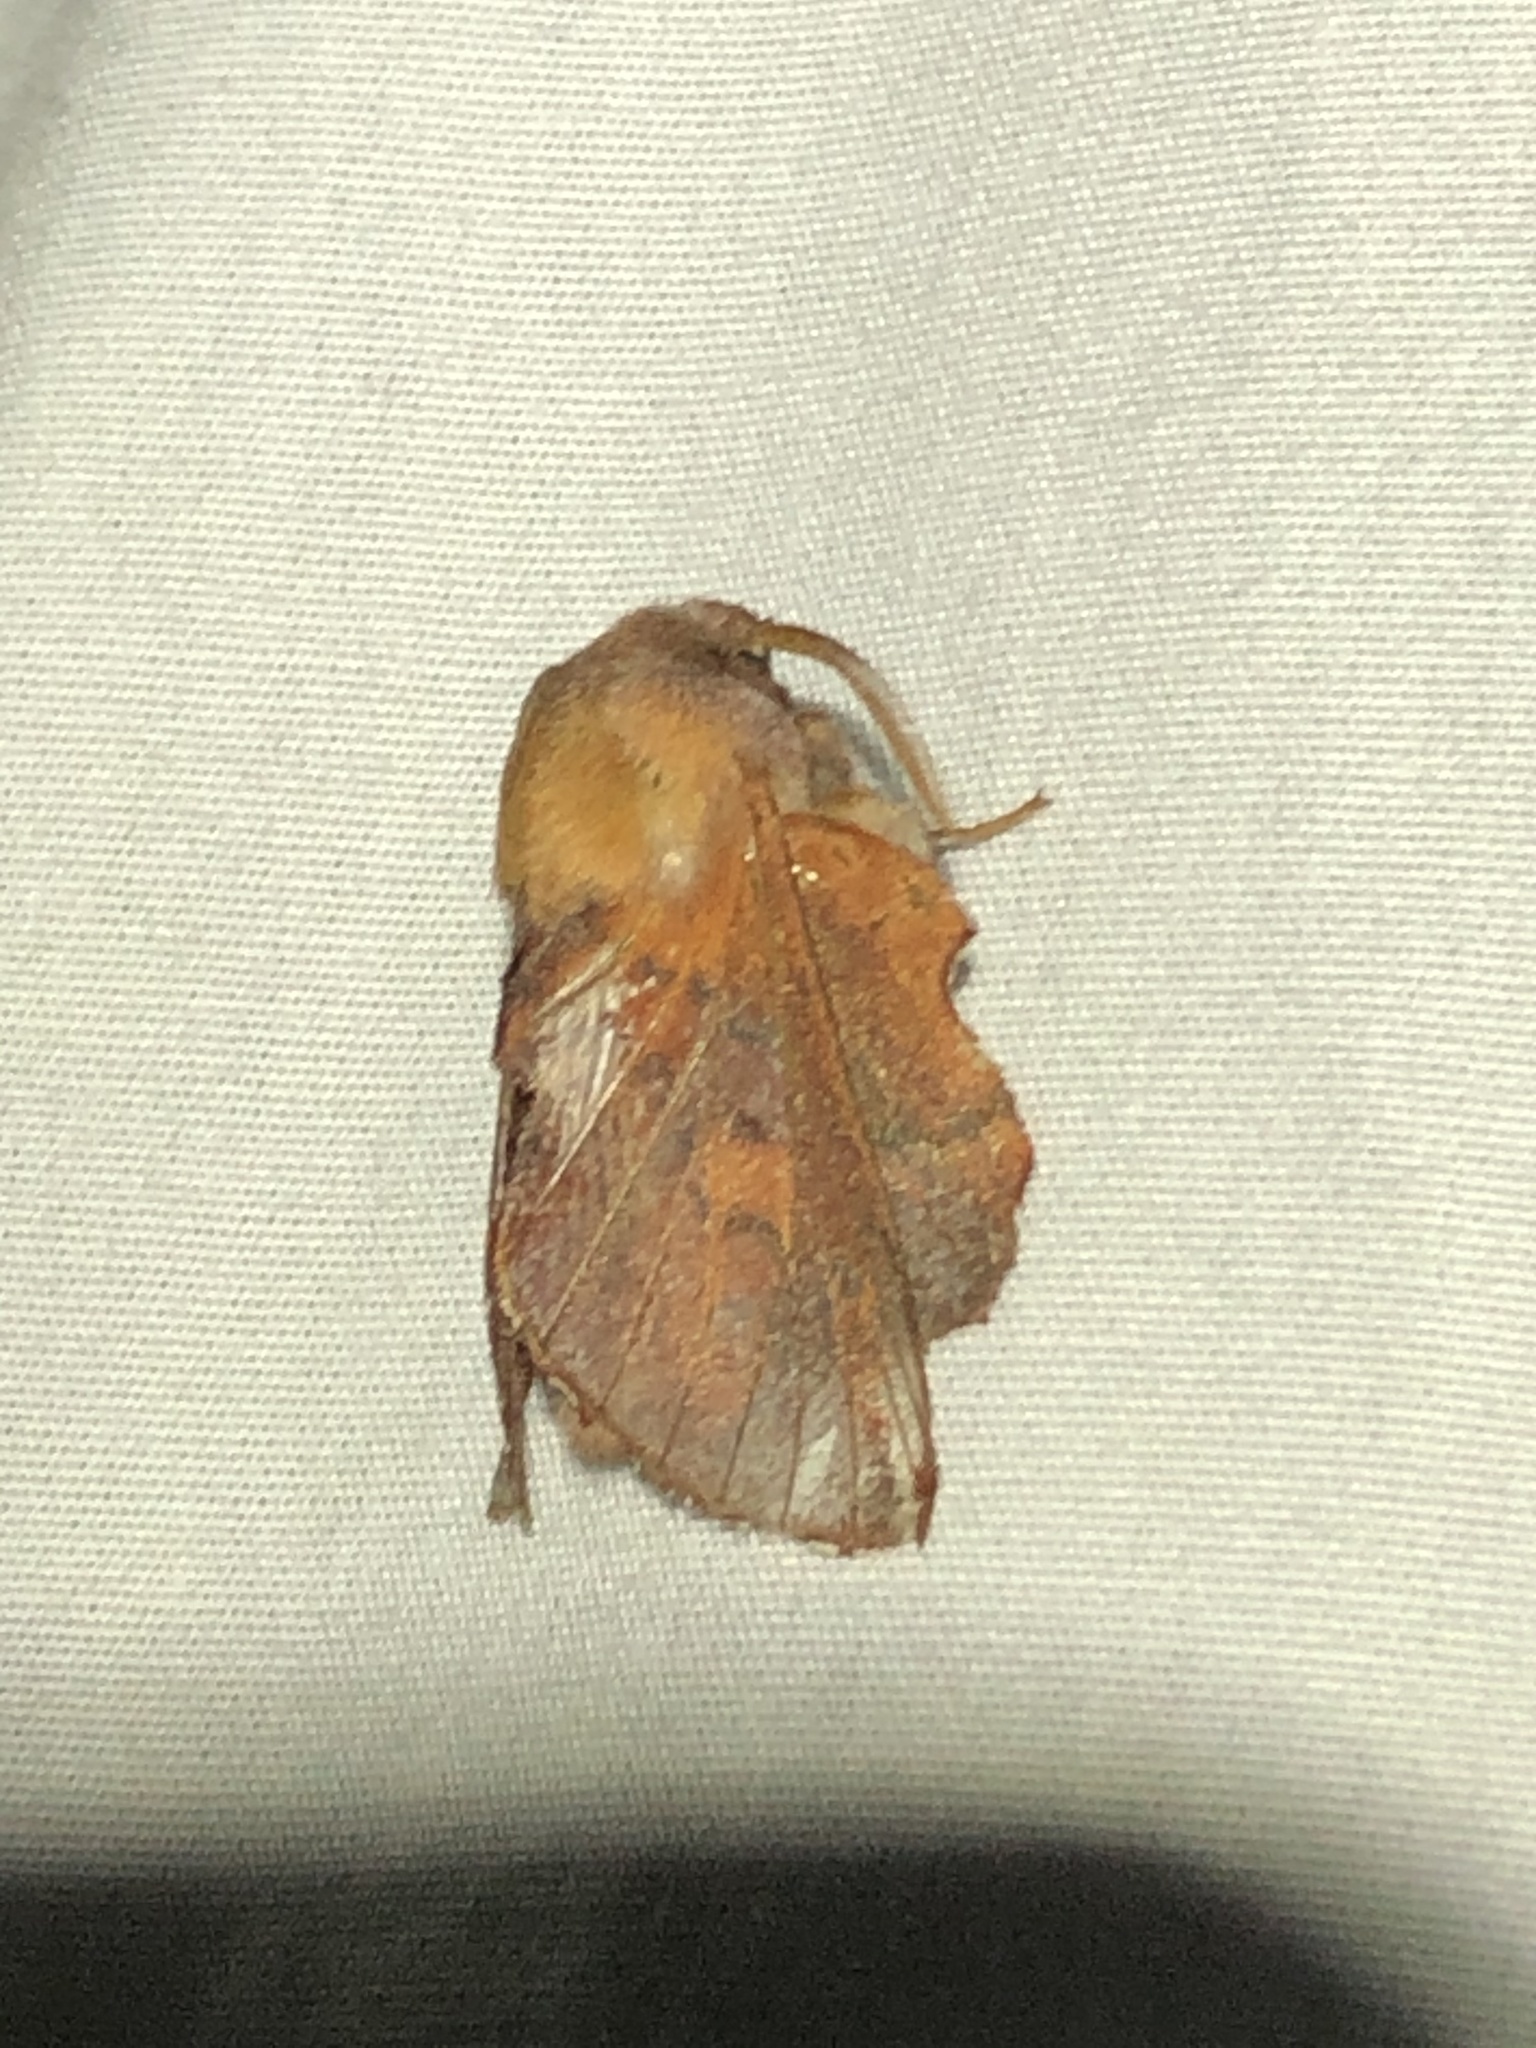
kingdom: Animalia
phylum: Arthropoda
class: Insecta
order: Lepidoptera
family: Lasiocampidae
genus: Phyllodesma
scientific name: Phyllodesma americana
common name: American lappet moth
